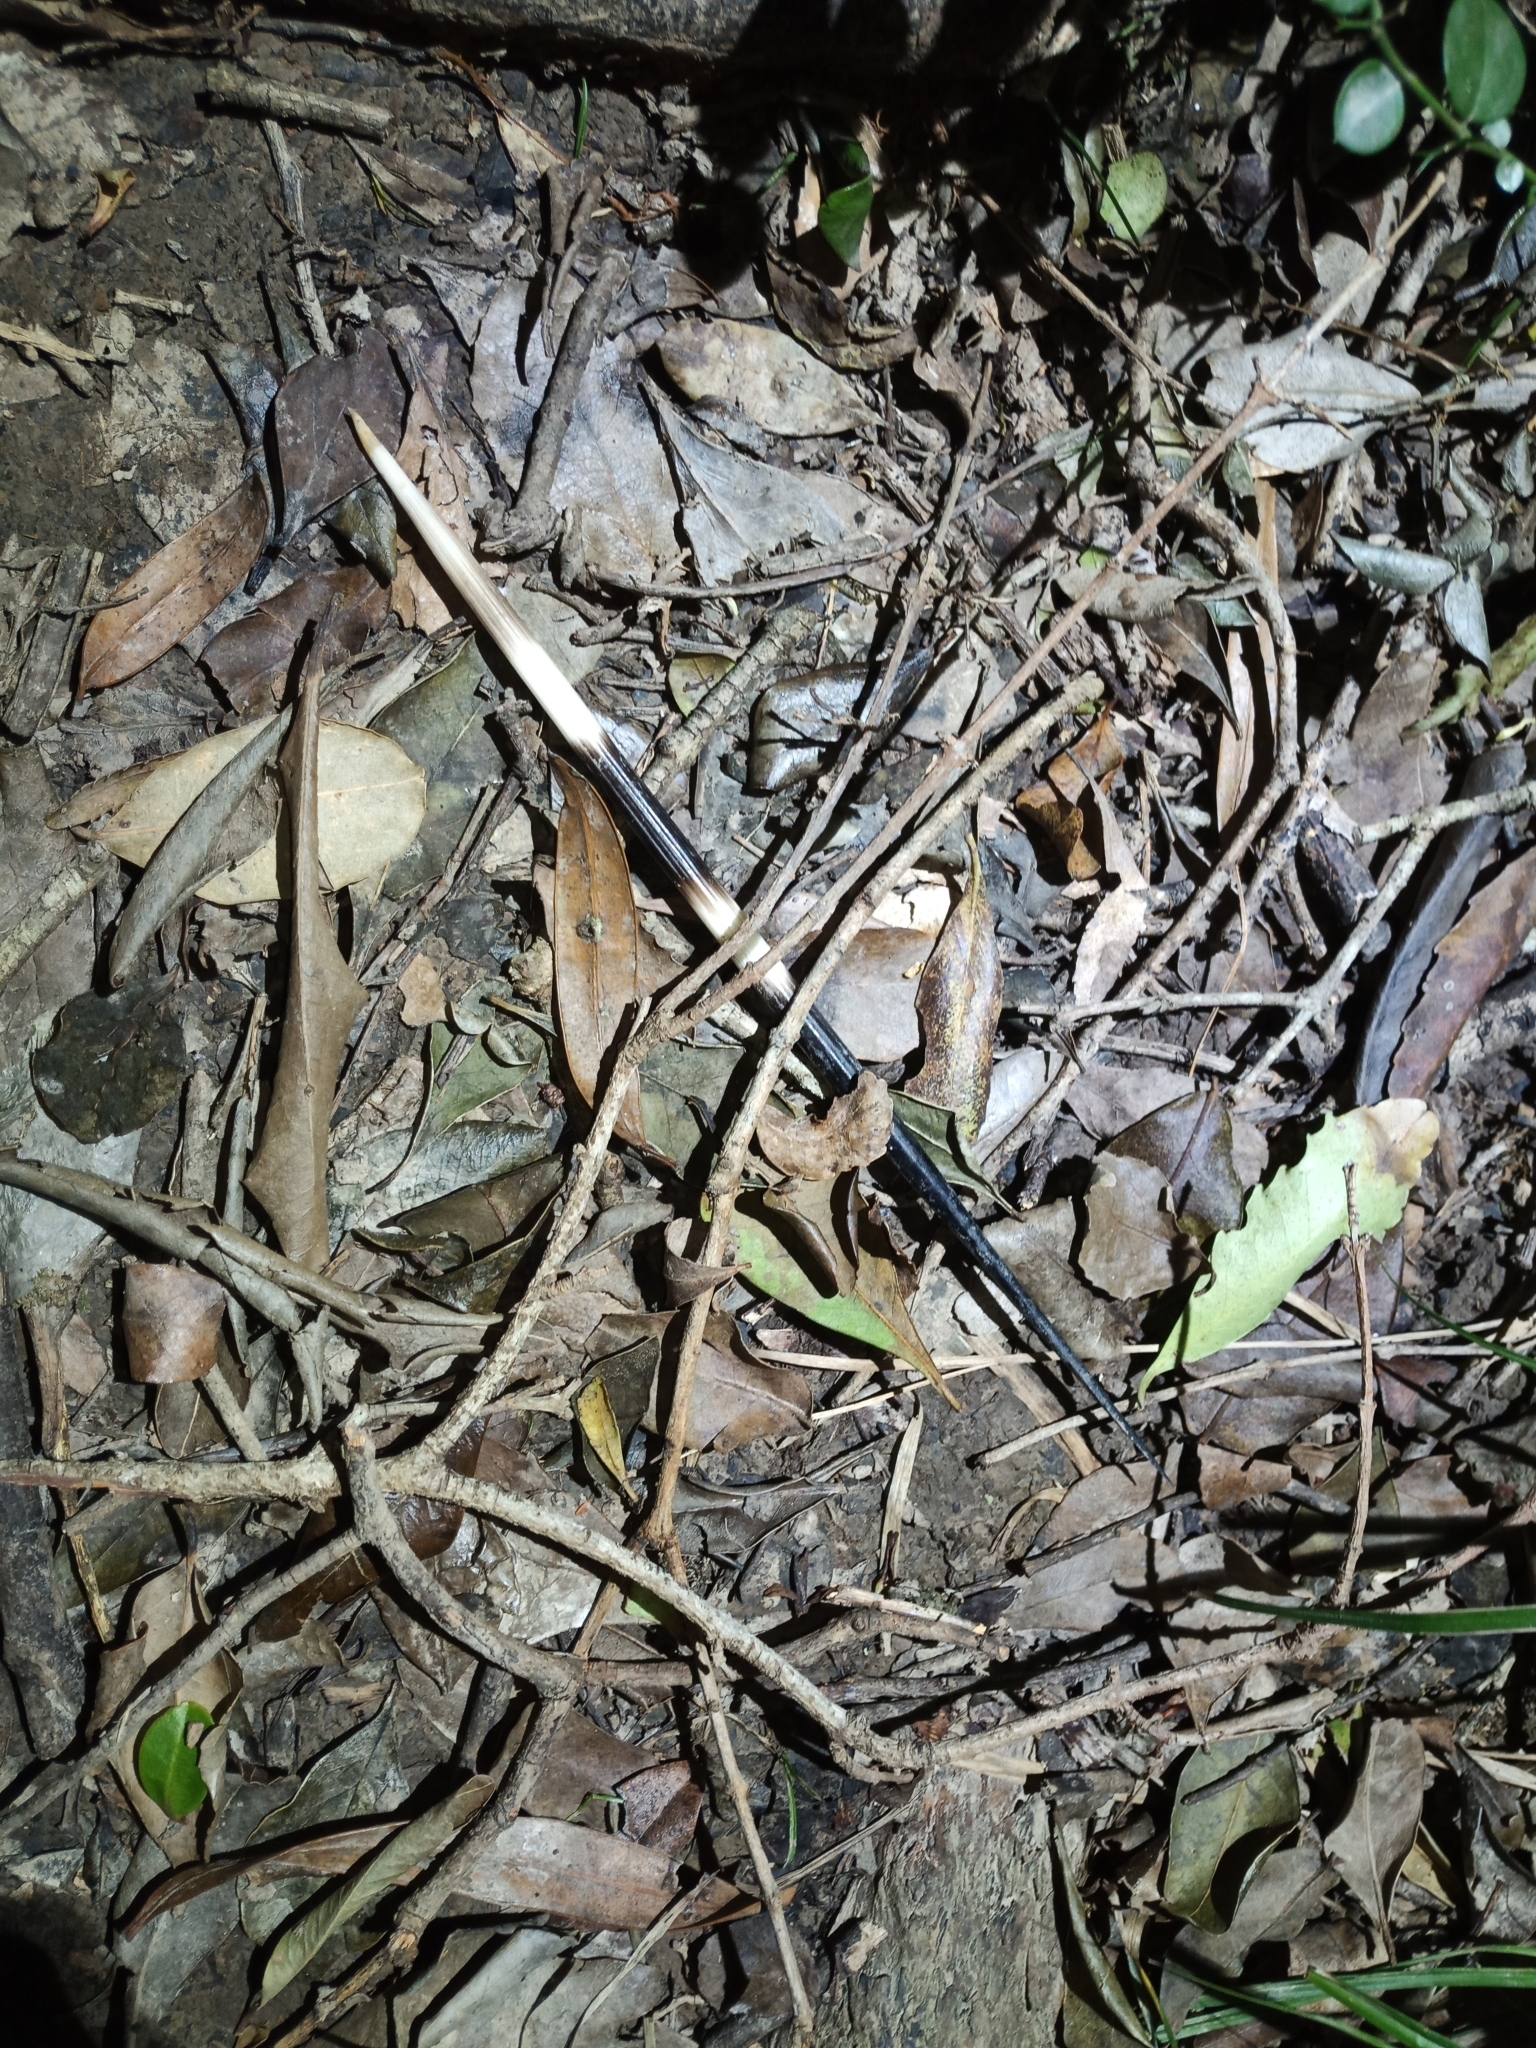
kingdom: Animalia
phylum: Chordata
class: Mammalia
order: Rodentia
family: Hystricidae
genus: Hystrix
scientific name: Hystrix africaeaustralis
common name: Cape porcupine
